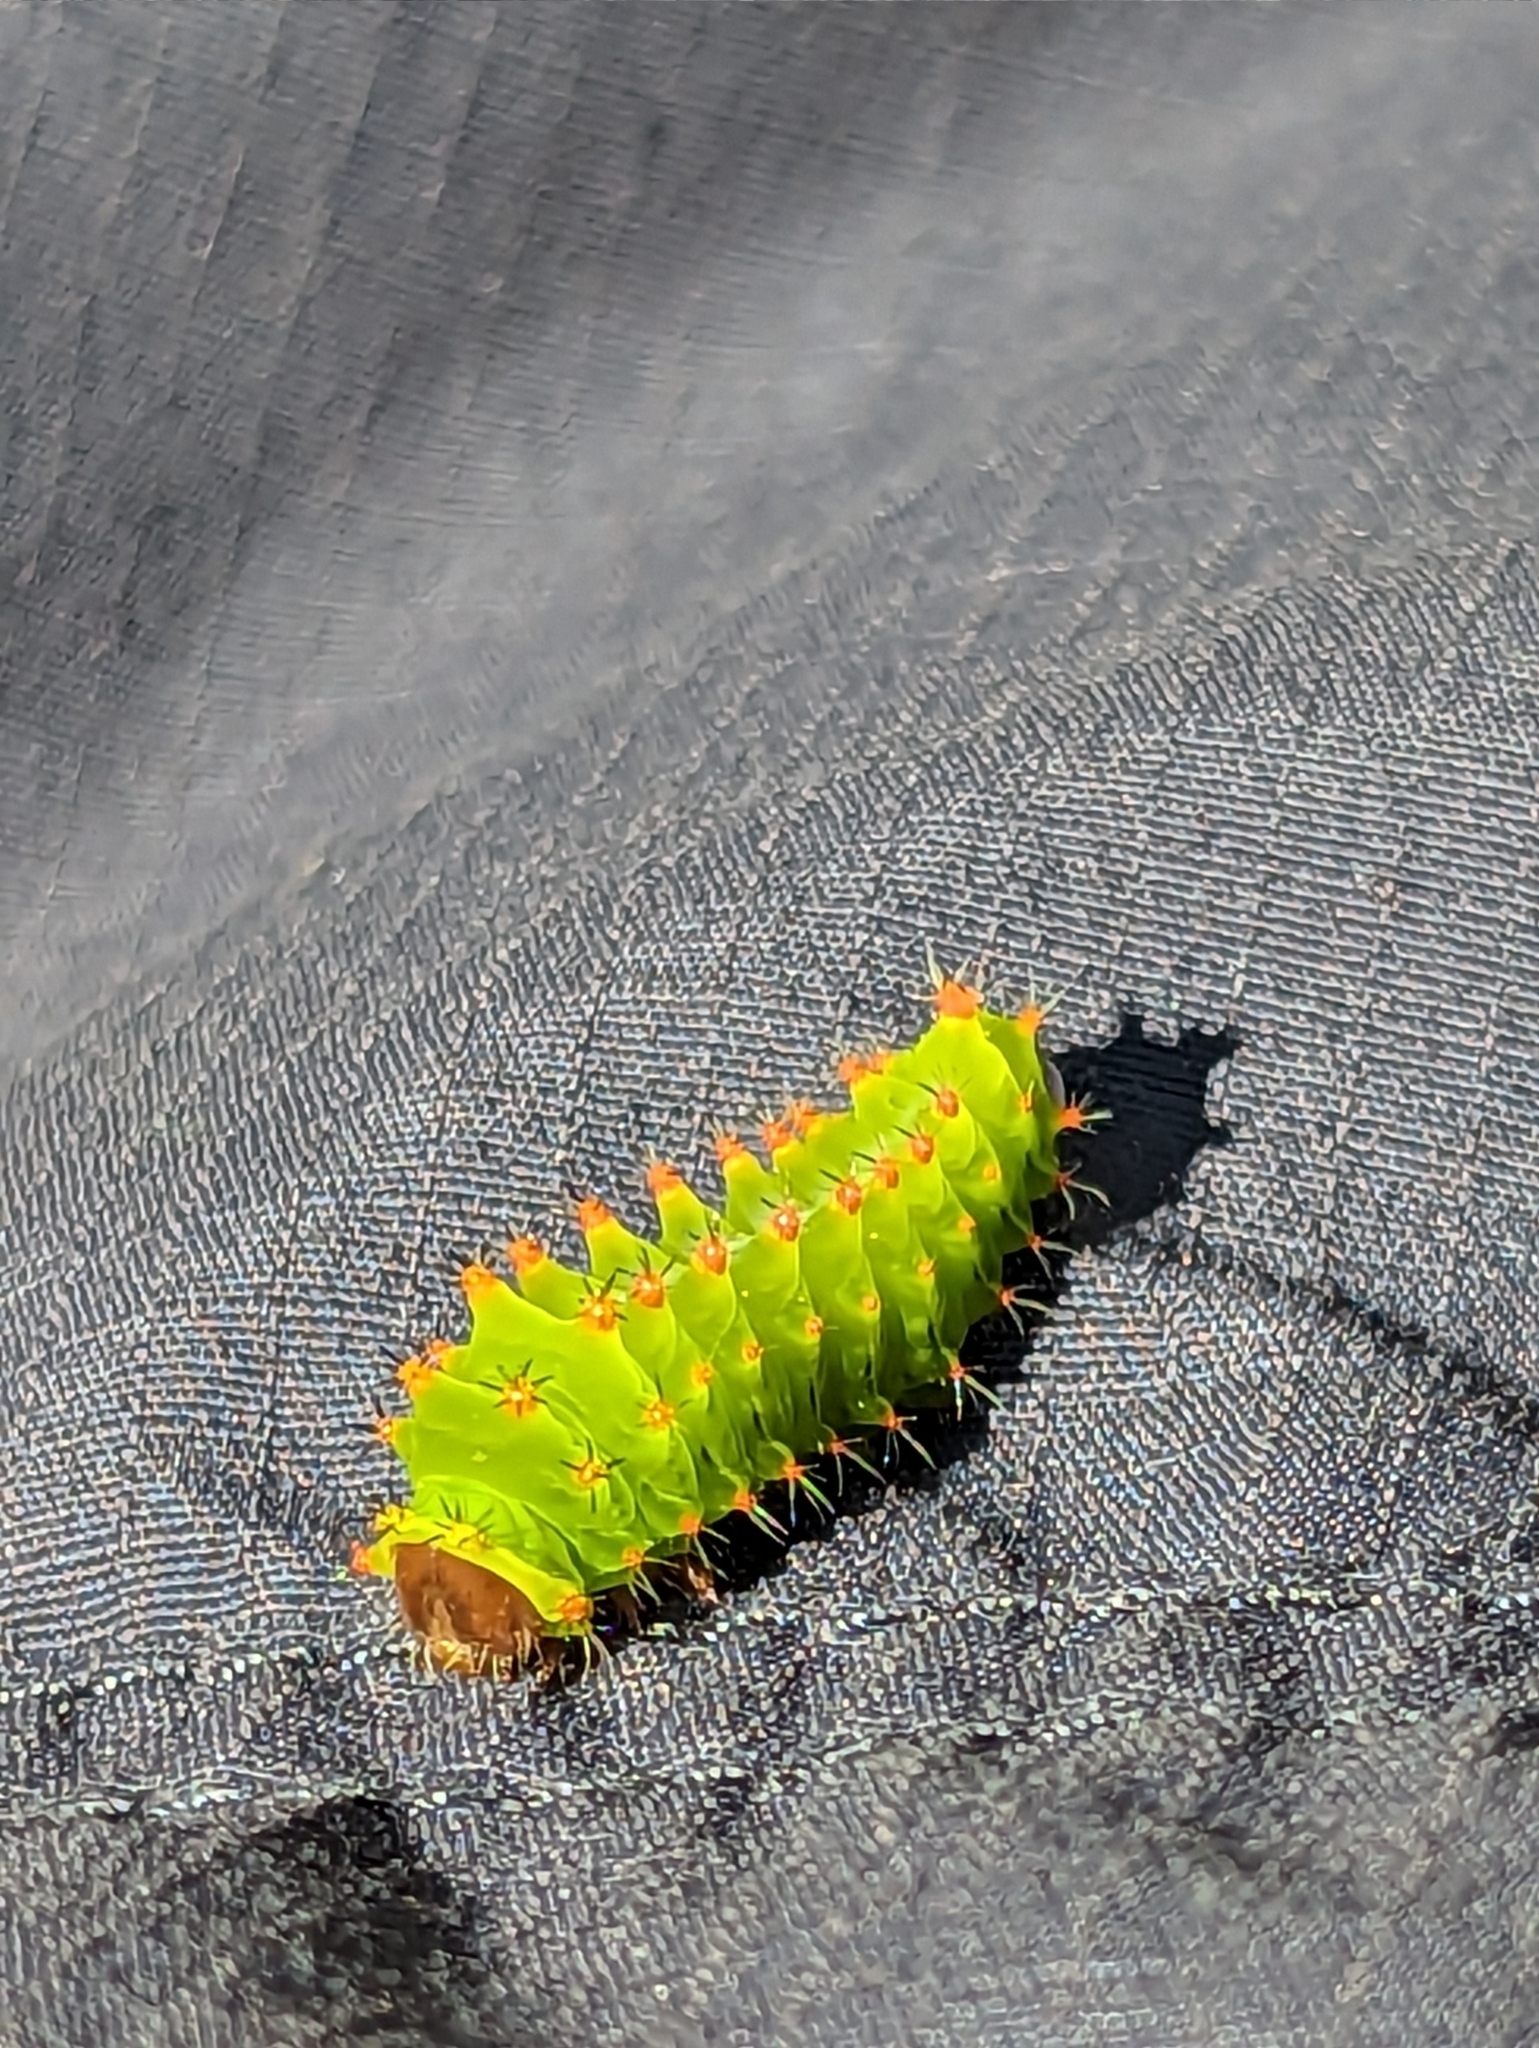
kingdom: Animalia
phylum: Arthropoda
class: Insecta
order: Lepidoptera
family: Saturniidae
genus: Antheraea
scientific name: Antheraea polyphemus
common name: Polyphemus moth
